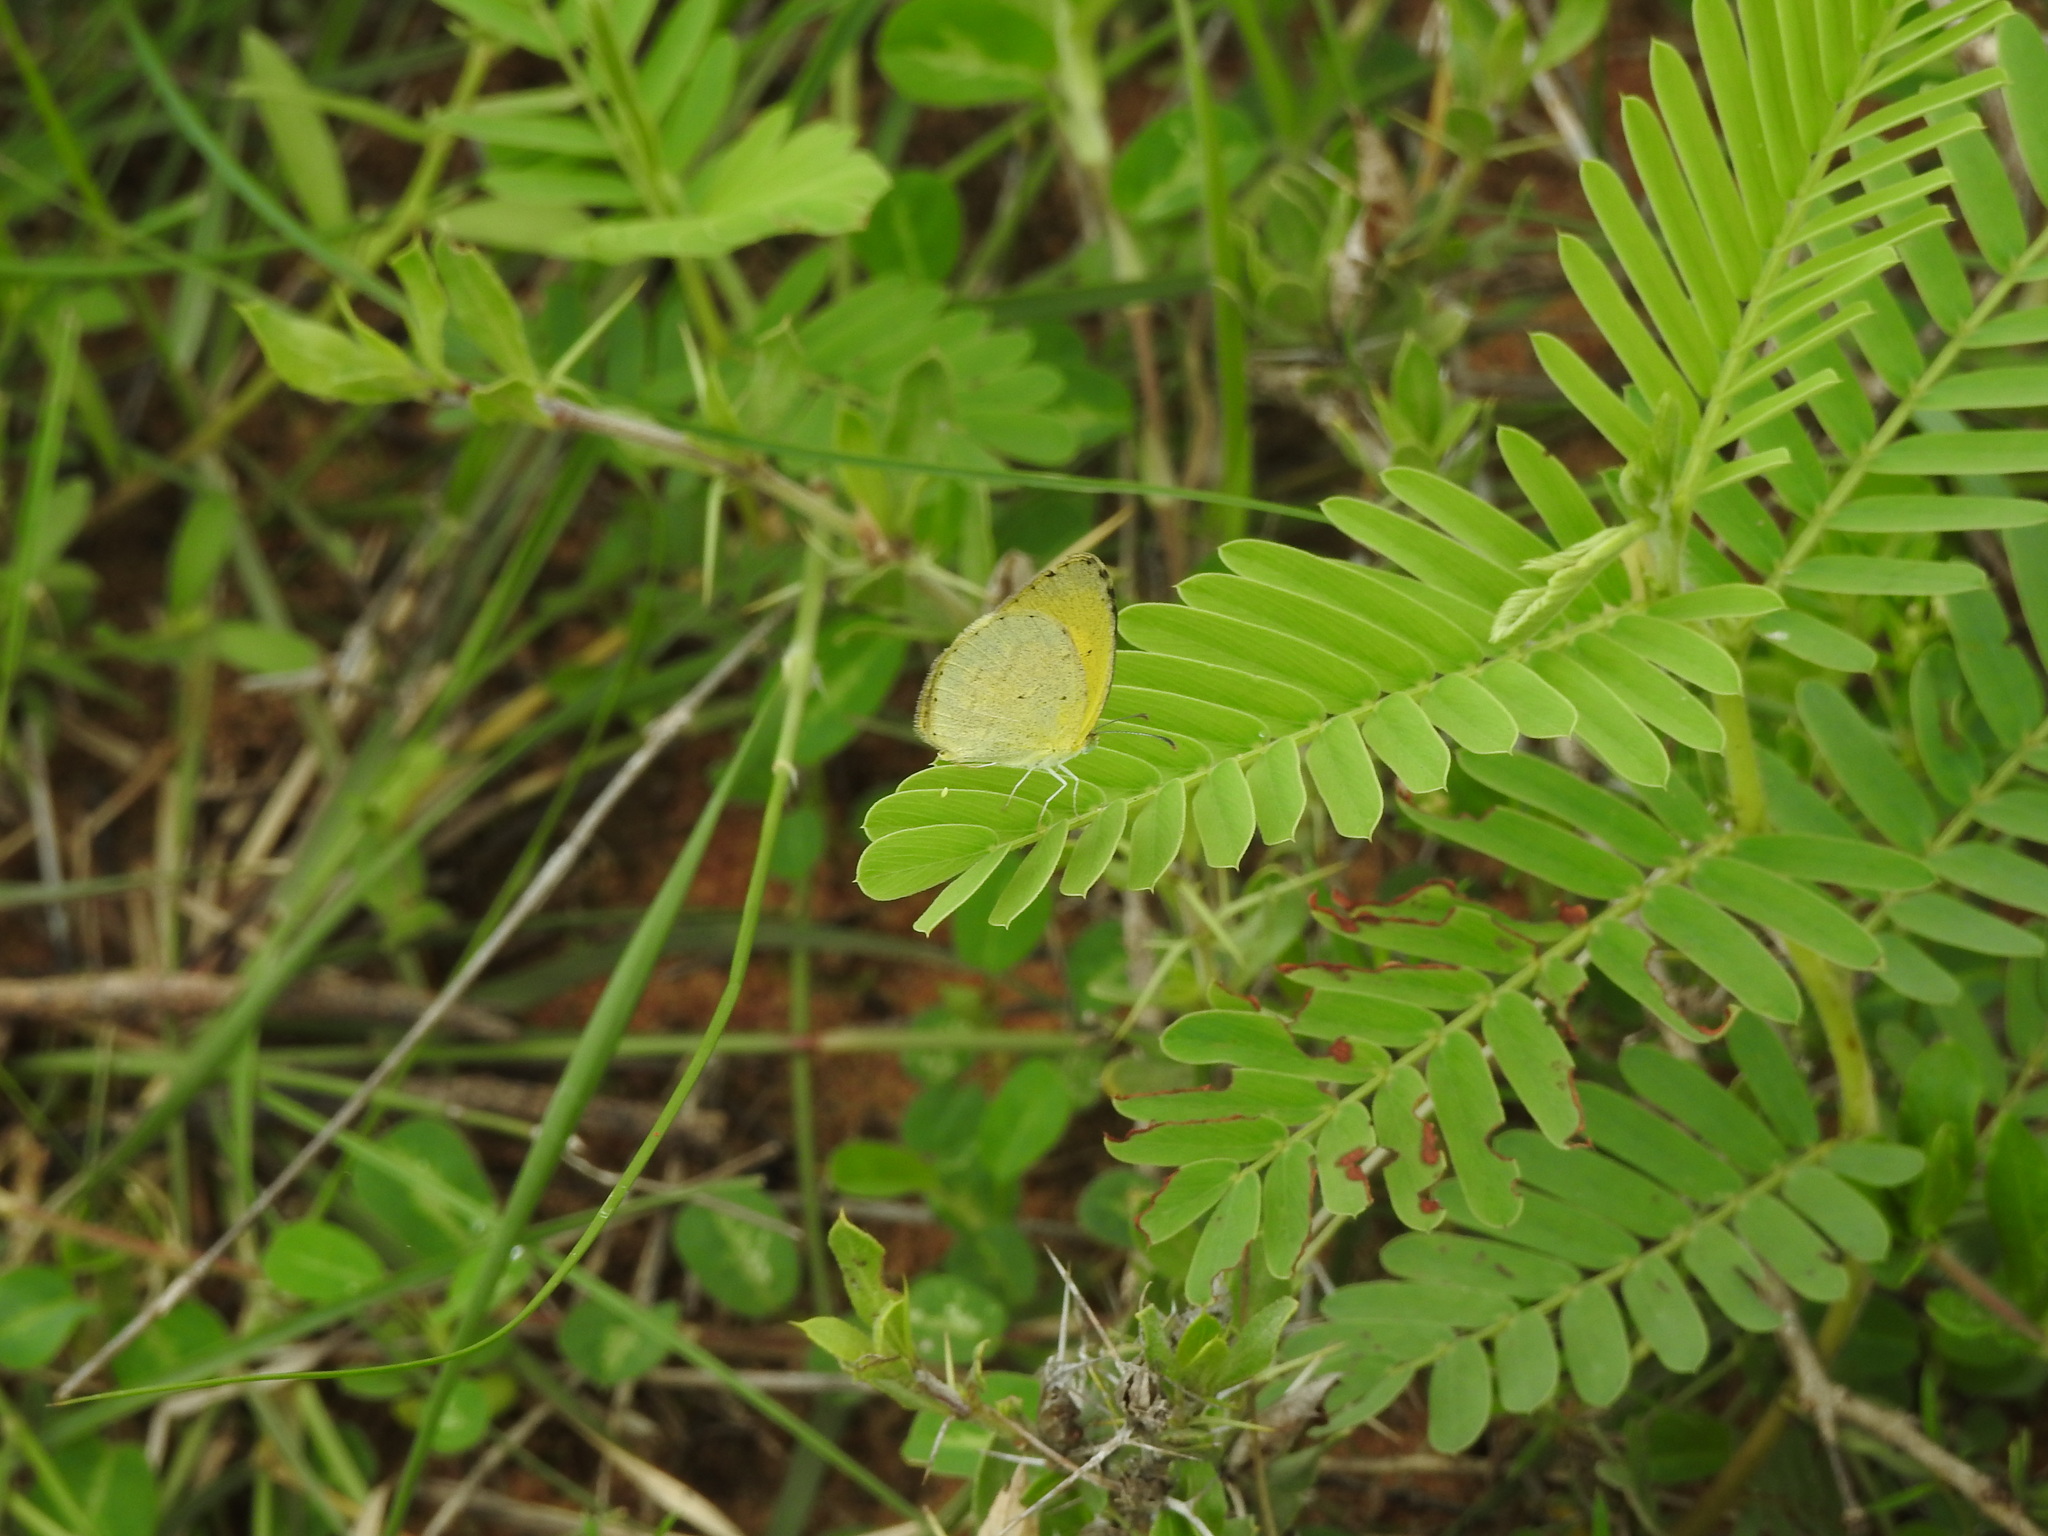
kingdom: Animalia
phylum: Arthropoda
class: Insecta
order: Lepidoptera
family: Pieridae
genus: Eurema
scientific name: Eurema brigitta
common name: Small grass yellow
